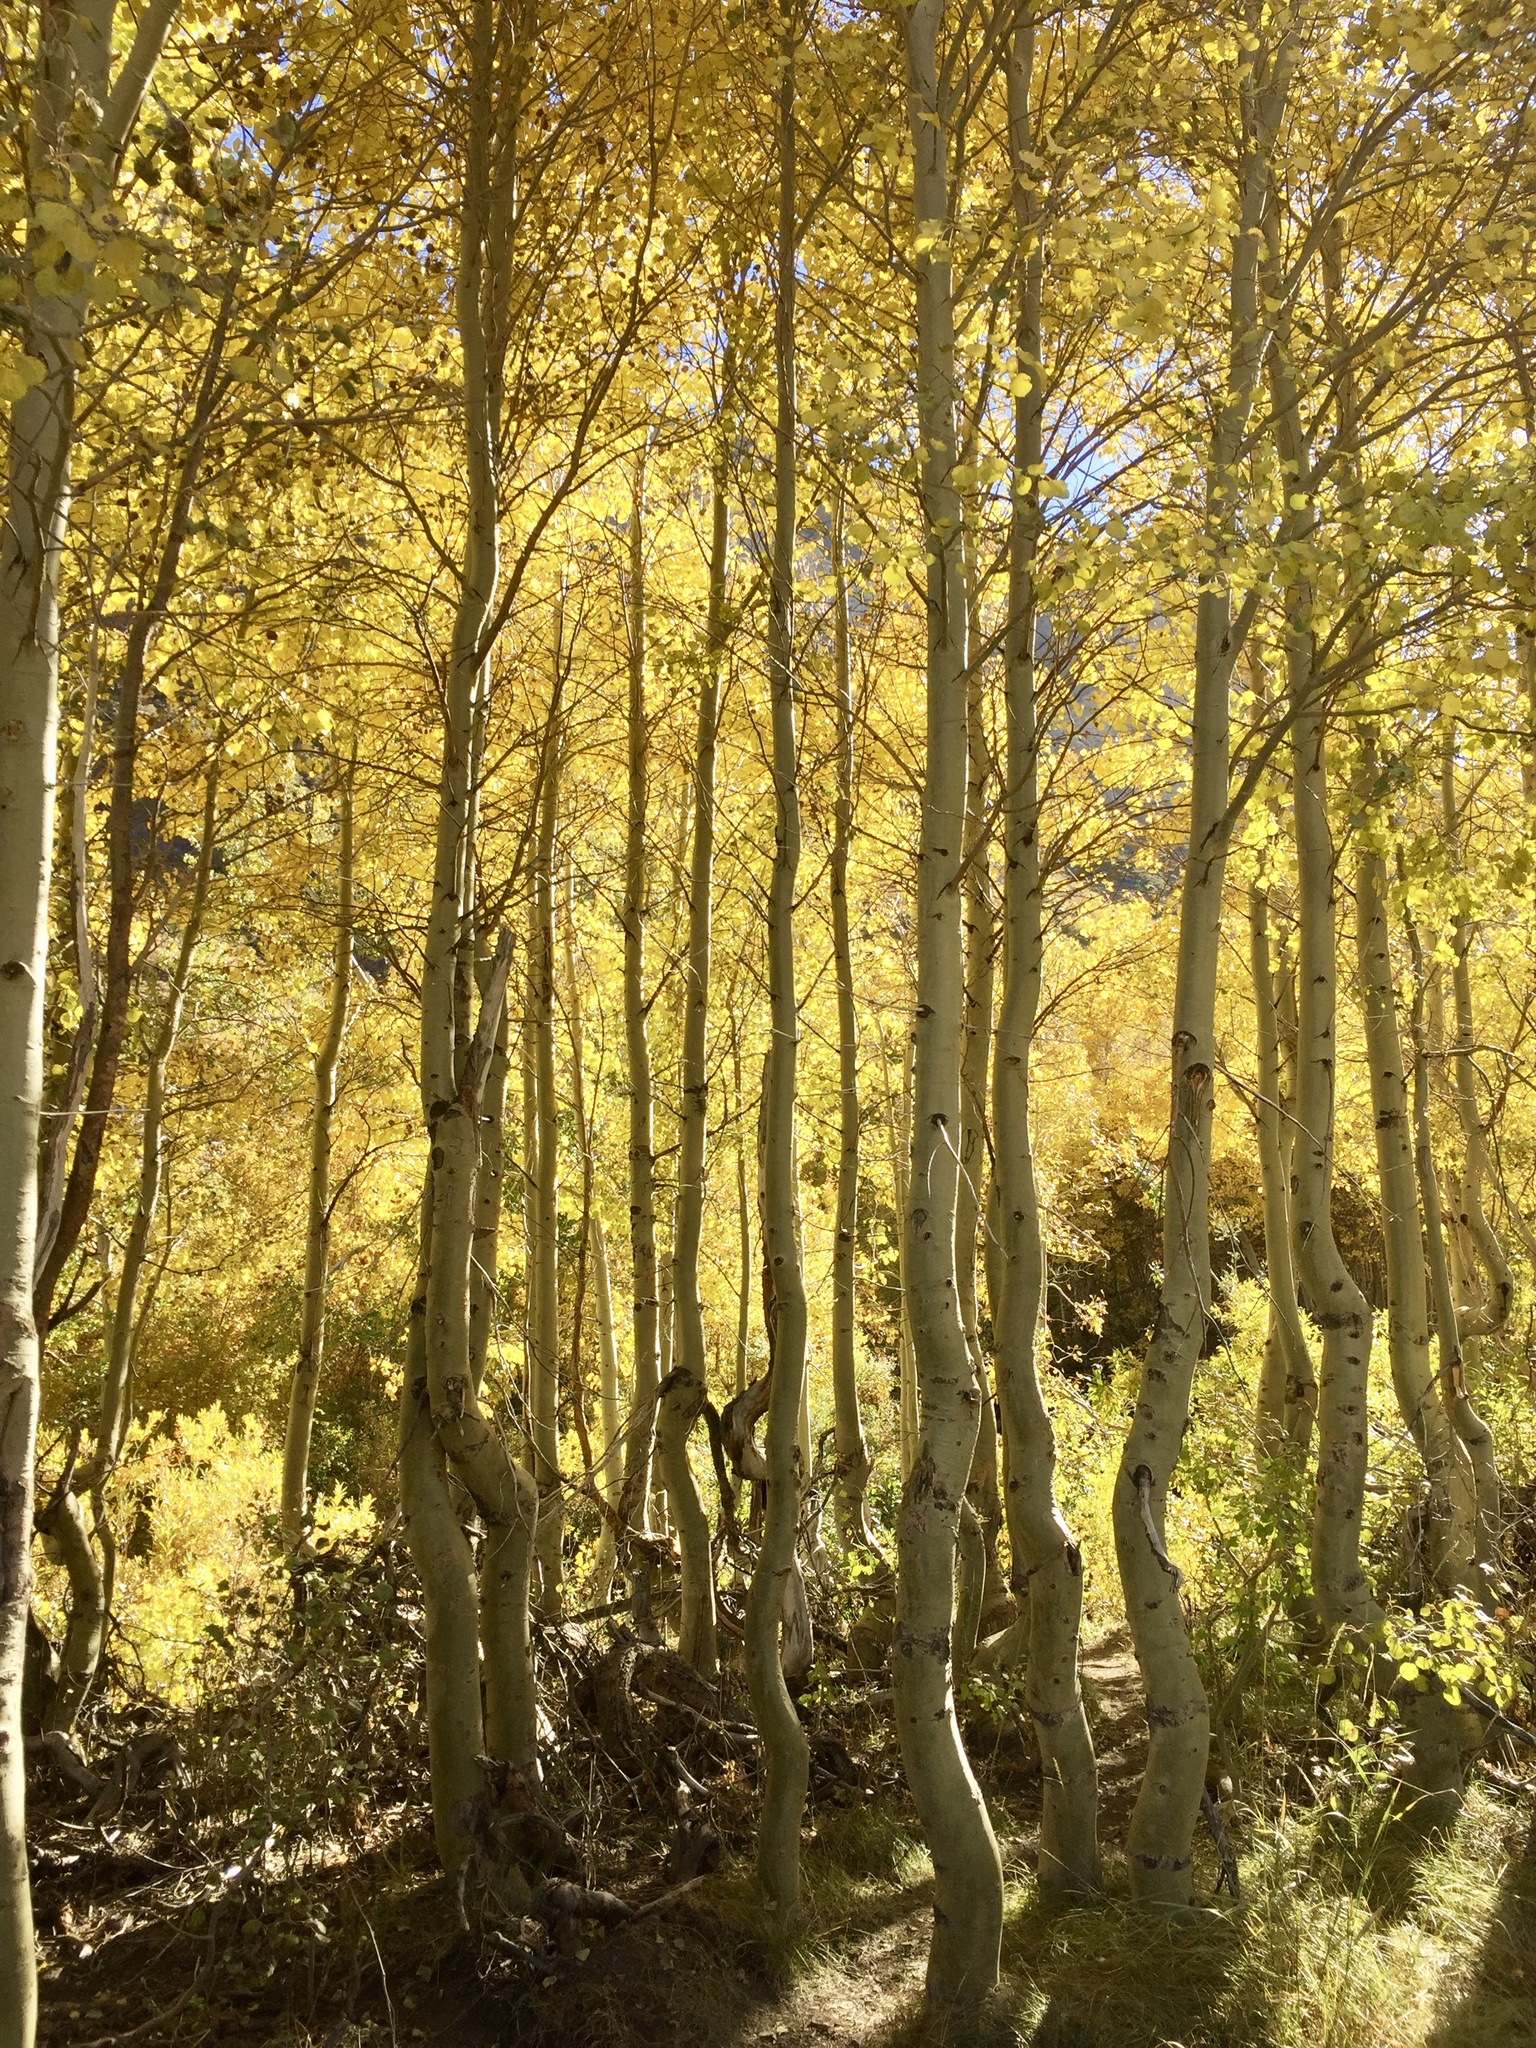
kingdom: Plantae
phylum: Tracheophyta
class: Magnoliopsida
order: Malpighiales
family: Salicaceae
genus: Populus
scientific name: Populus tremuloides
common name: Quaking aspen
